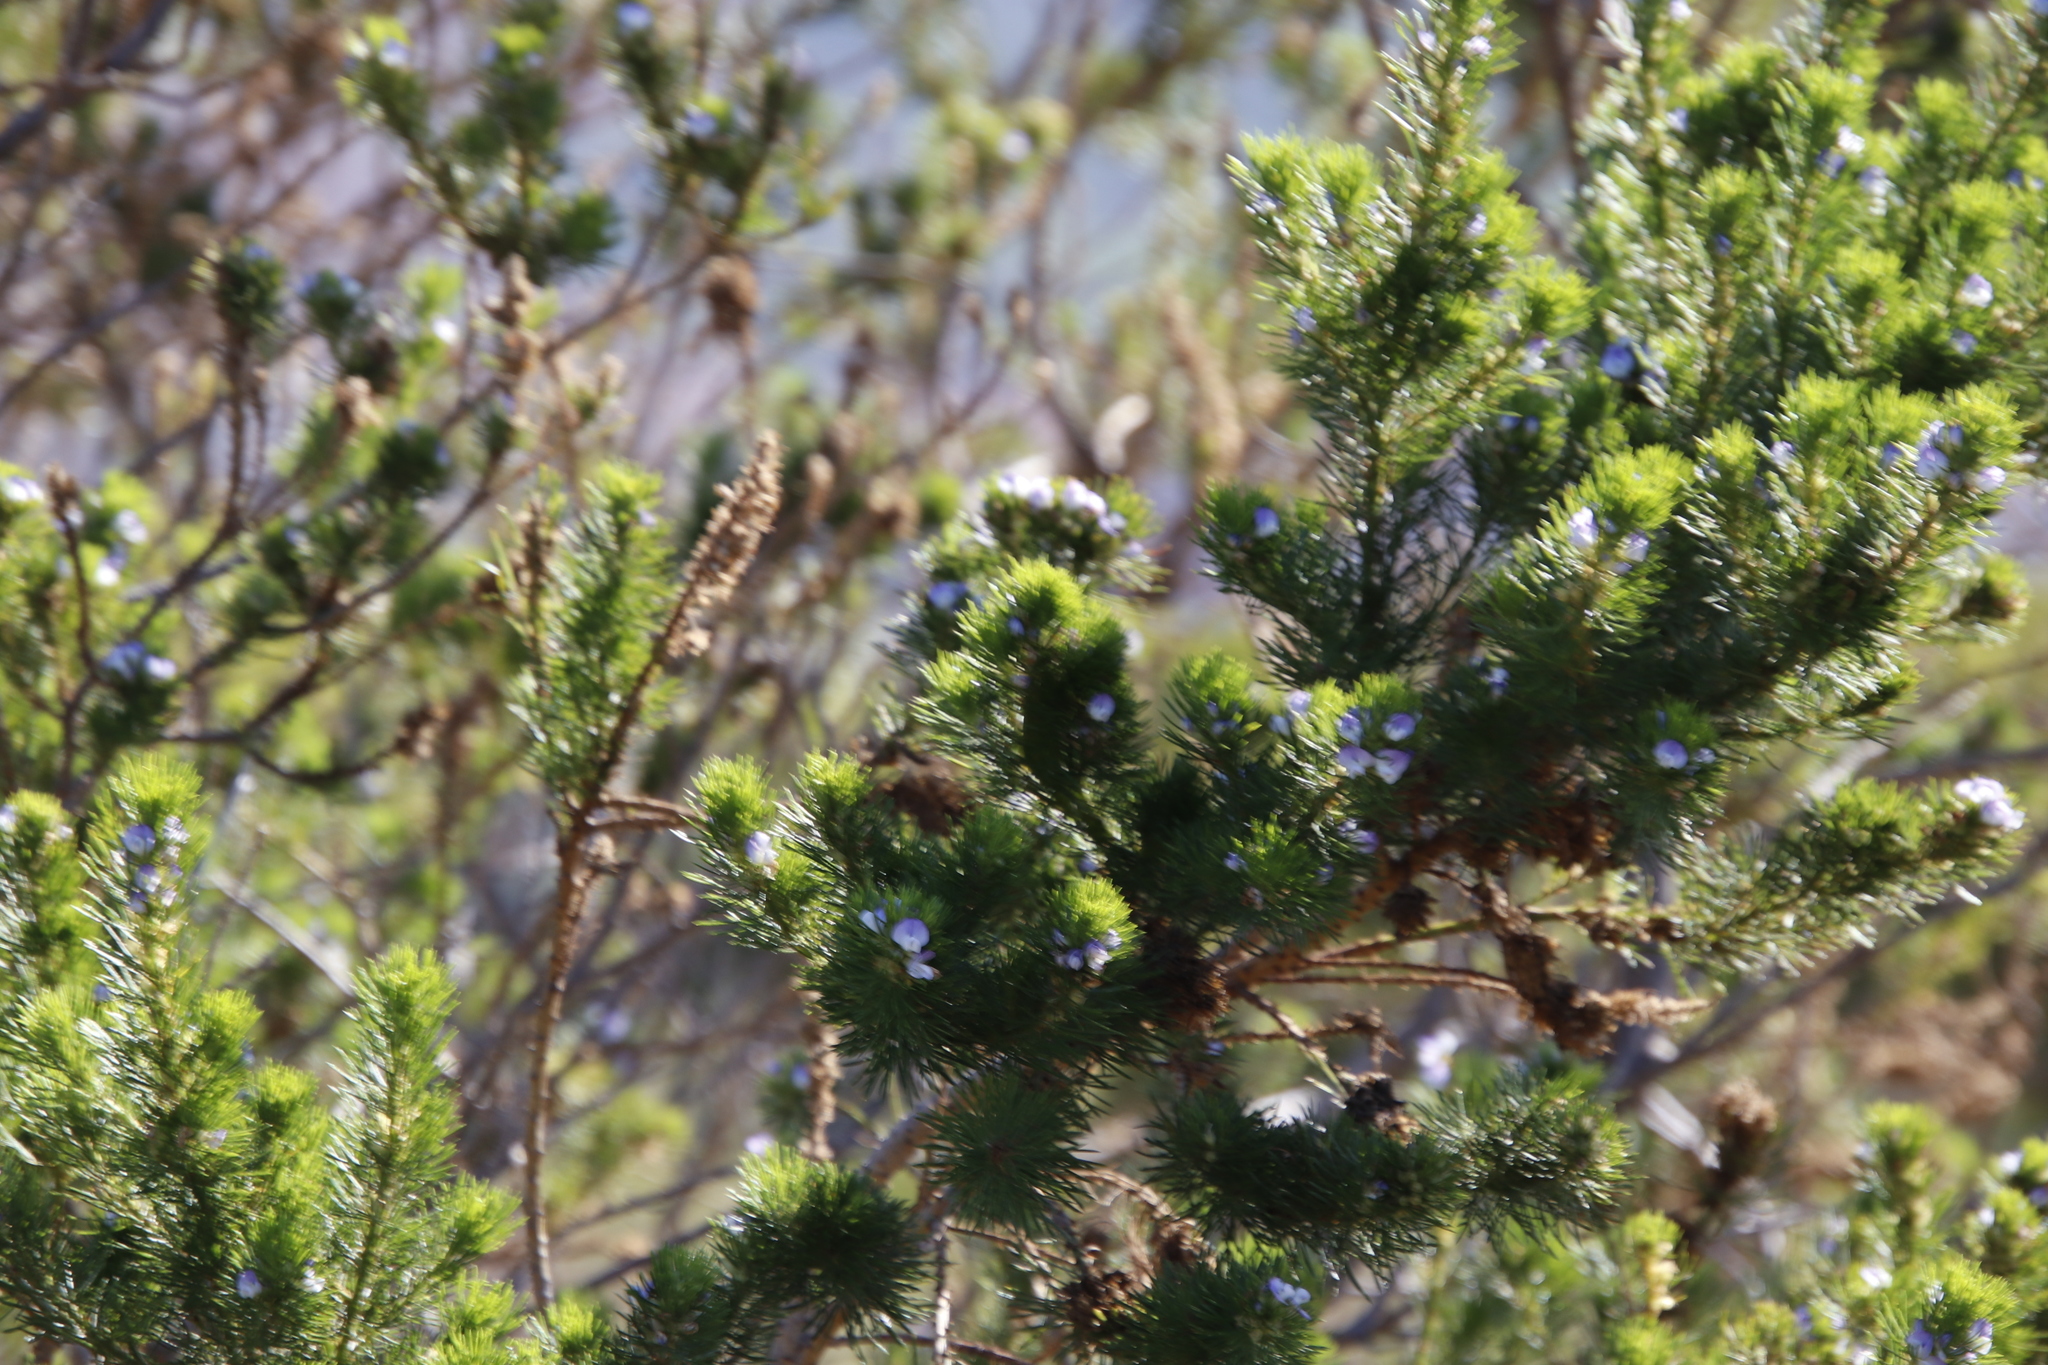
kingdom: Plantae
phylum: Tracheophyta
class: Magnoliopsida
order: Fabales
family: Fabaceae
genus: Psoralea
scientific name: Psoralea pinnata
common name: African scurfpea
